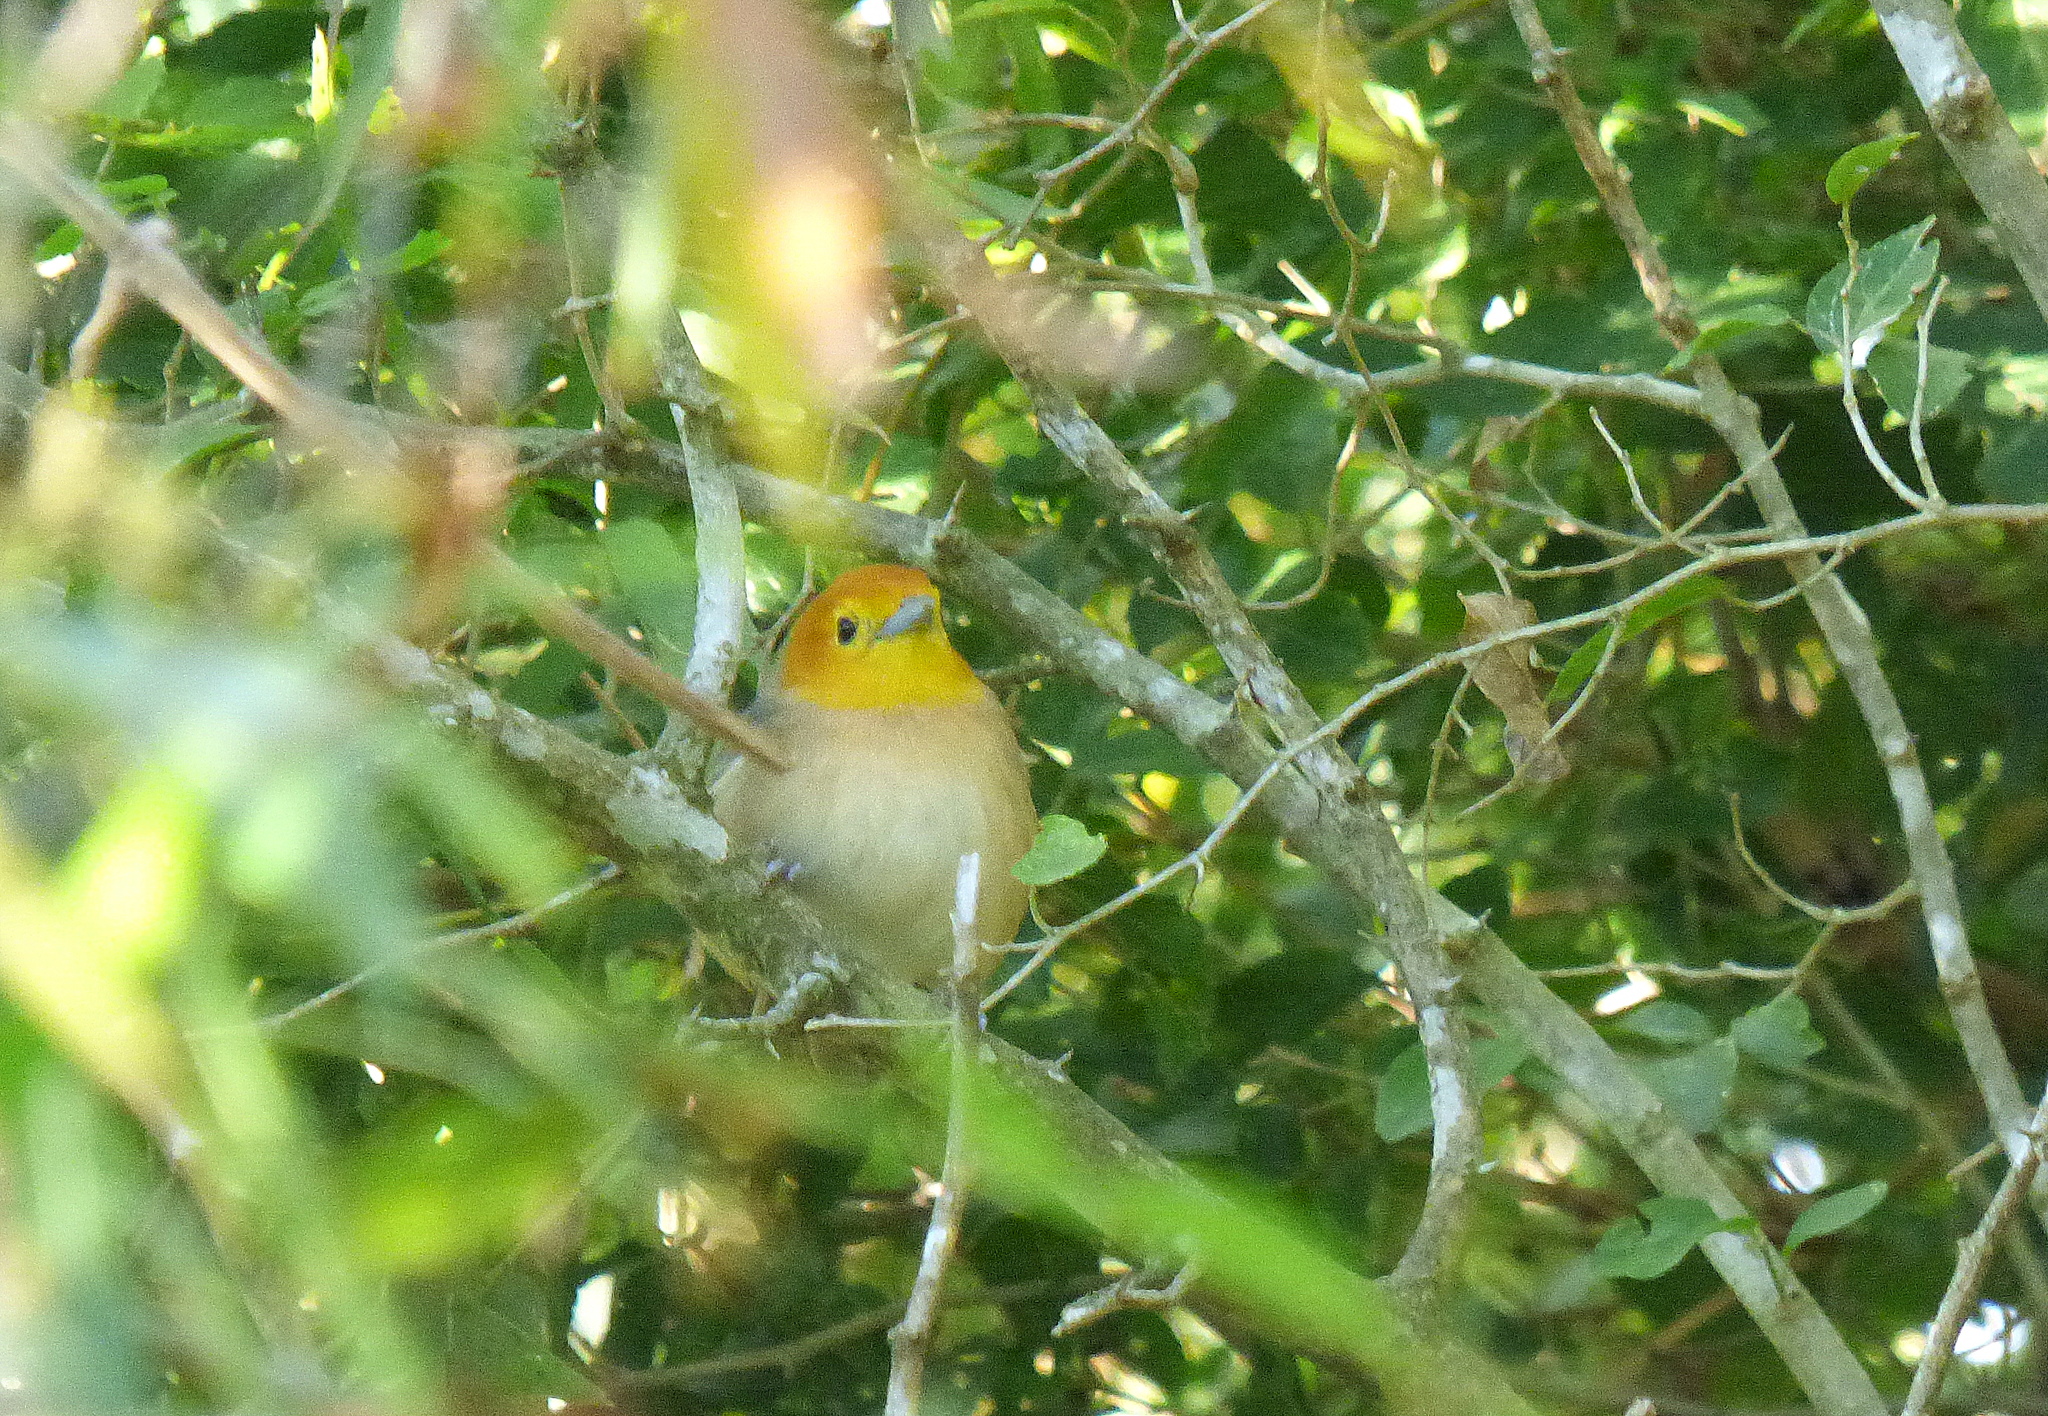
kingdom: Animalia
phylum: Chordata
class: Aves
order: Passeriformes
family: Thraupidae
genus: Thlypopsis
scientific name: Thlypopsis sordida
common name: Orange-headed tanager
